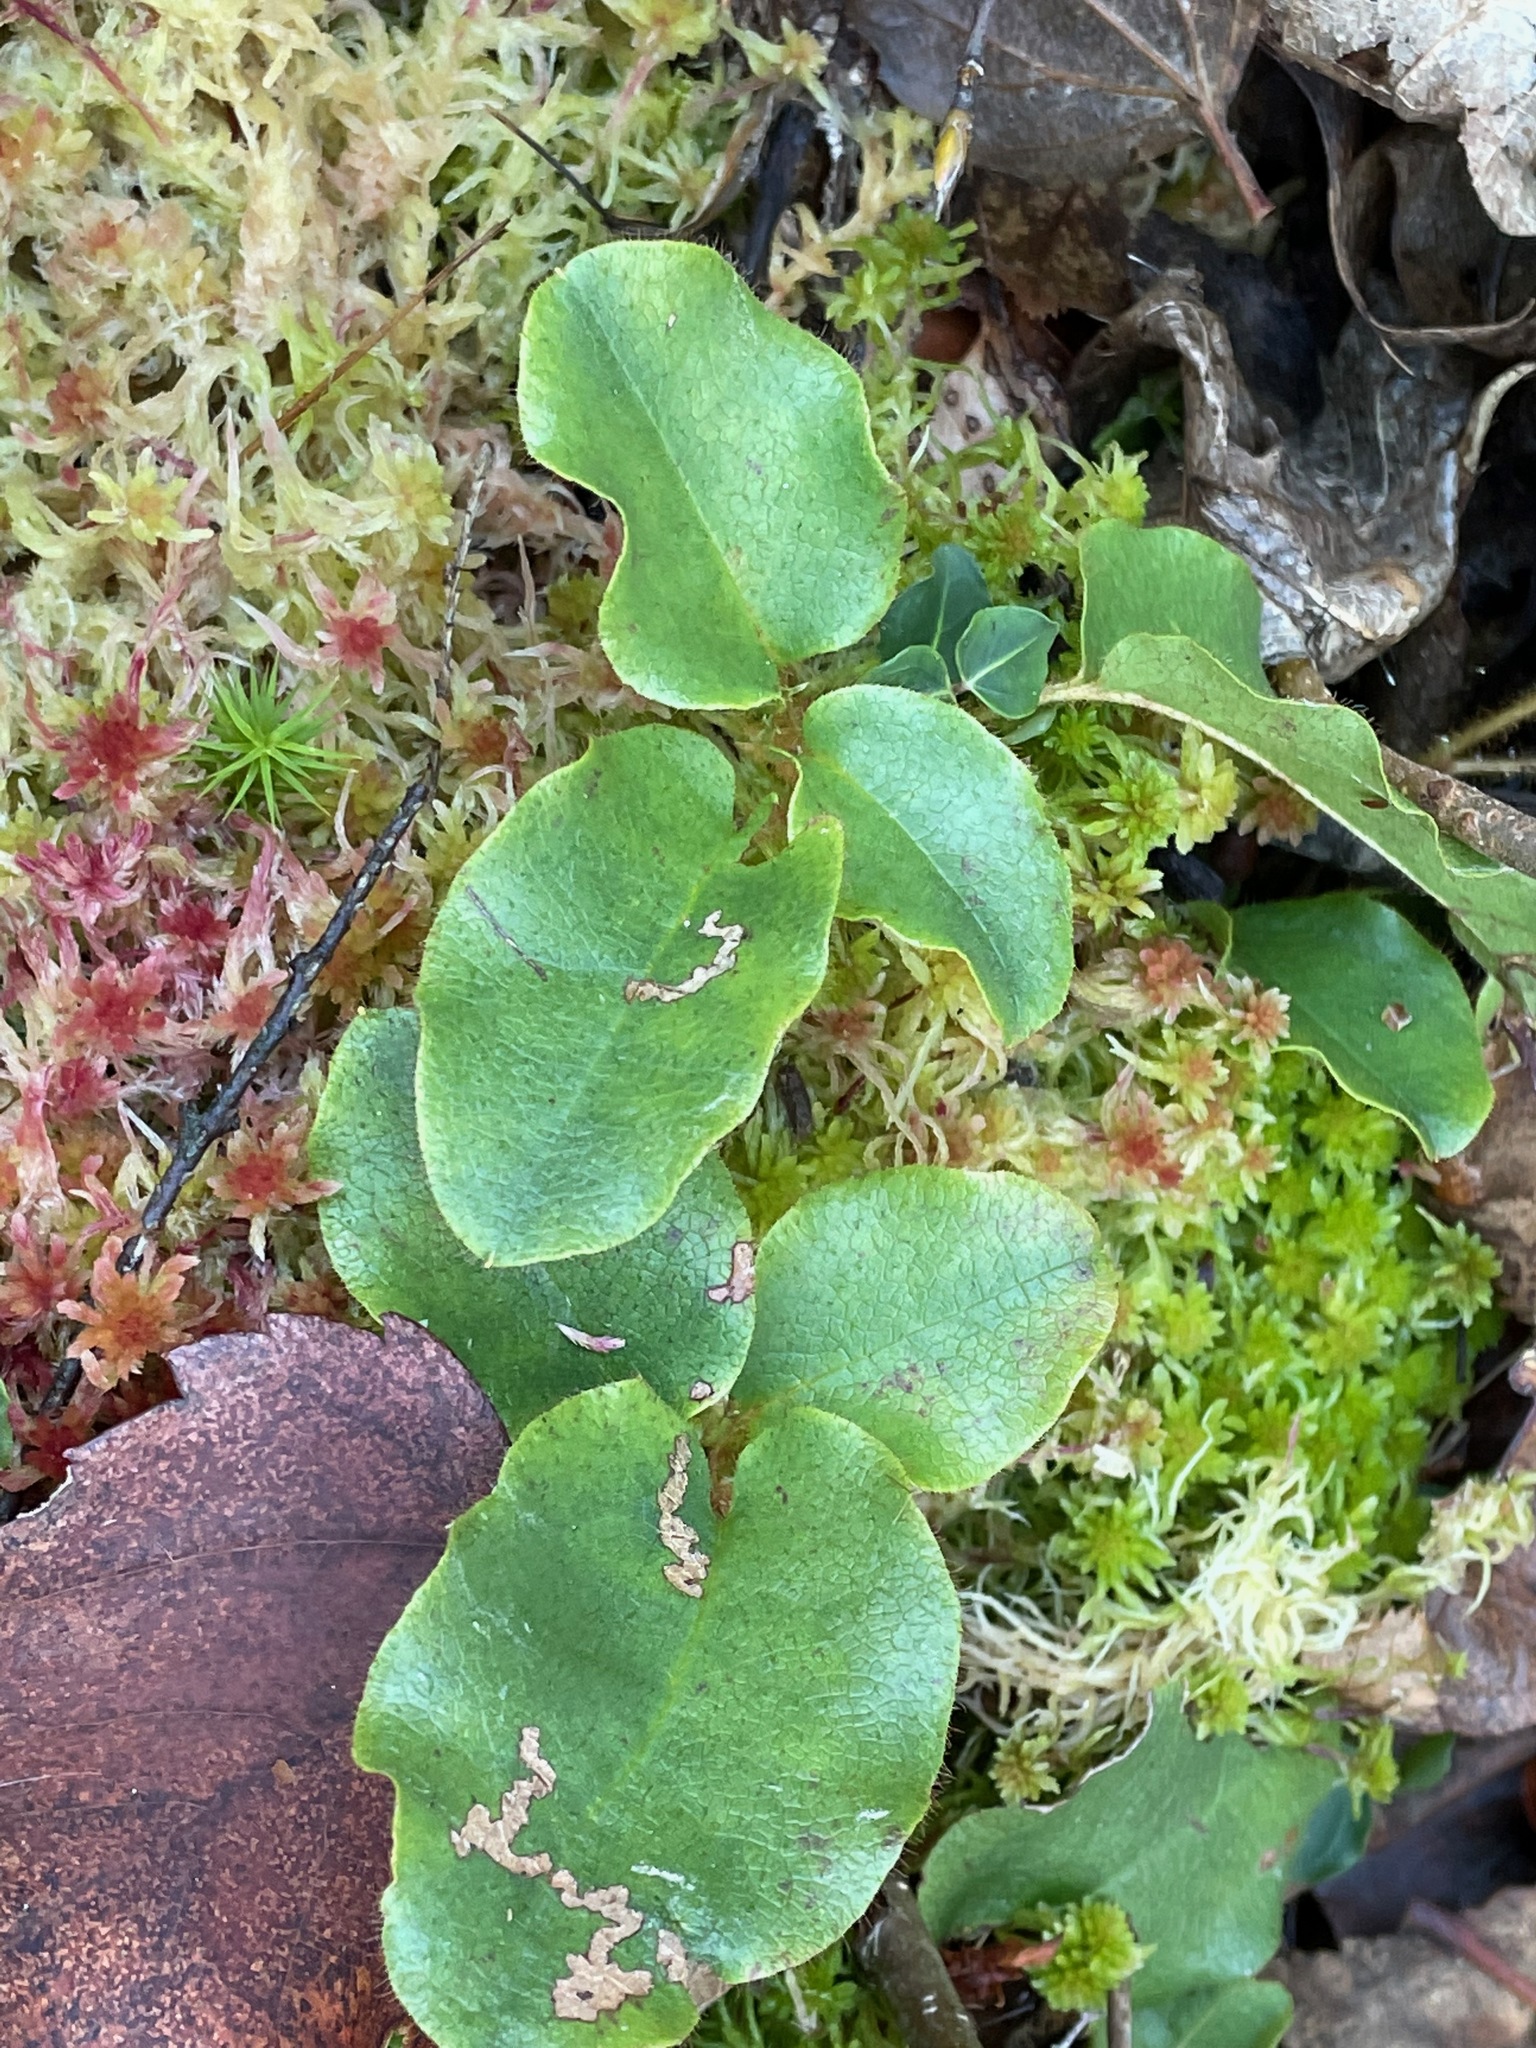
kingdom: Plantae
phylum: Tracheophyta
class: Magnoliopsida
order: Ericales
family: Ericaceae
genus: Epigaea
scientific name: Epigaea repens
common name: Gravelroot
